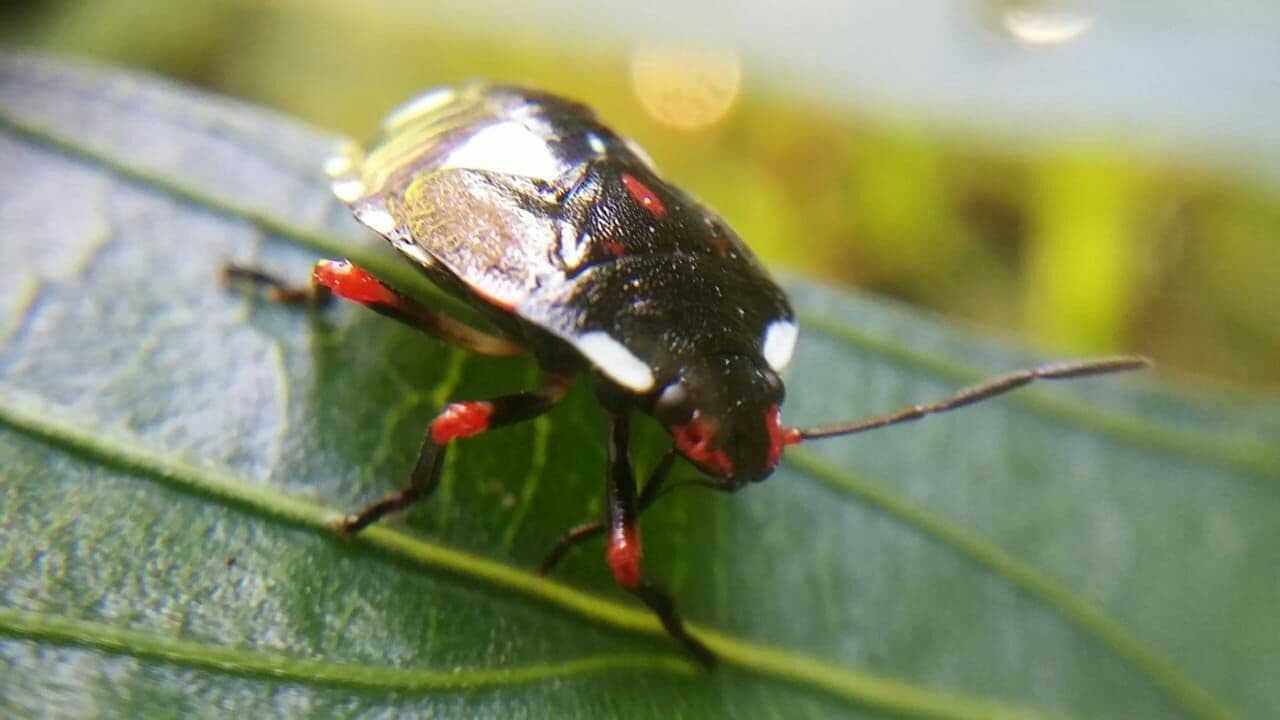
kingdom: Animalia
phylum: Arthropoda
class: Insecta
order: Hemiptera
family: Pentatomidae
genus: Chinavia
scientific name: Chinavia erythrocnemis
